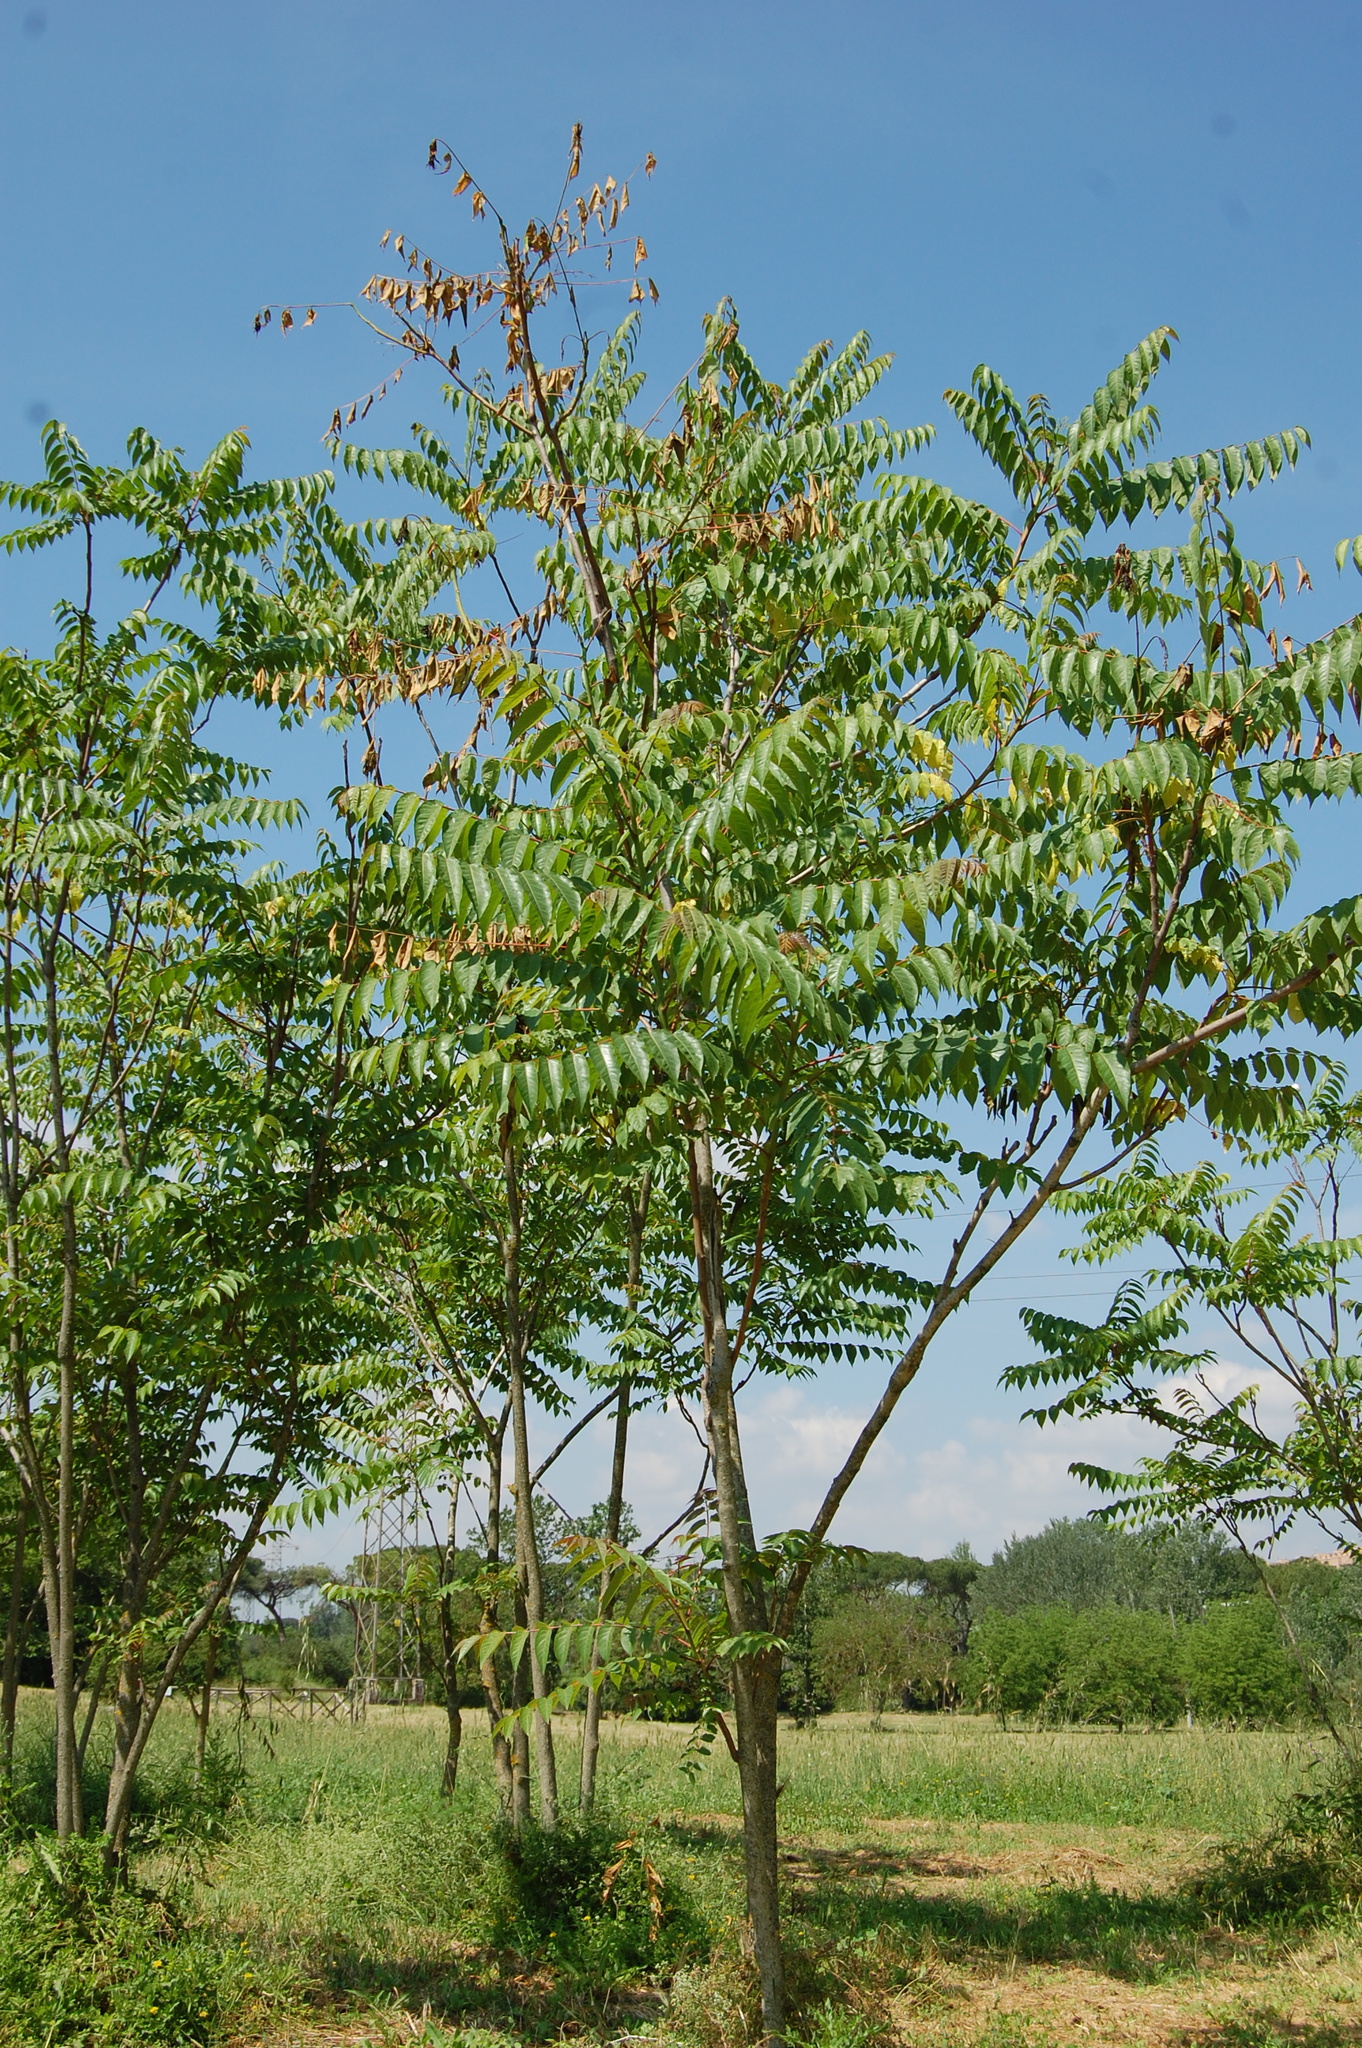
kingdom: Plantae
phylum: Tracheophyta
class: Magnoliopsida
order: Sapindales
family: Simaroubaceae
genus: Ailanthus
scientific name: Ailanthus altissima
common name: Tree-of-heaven
